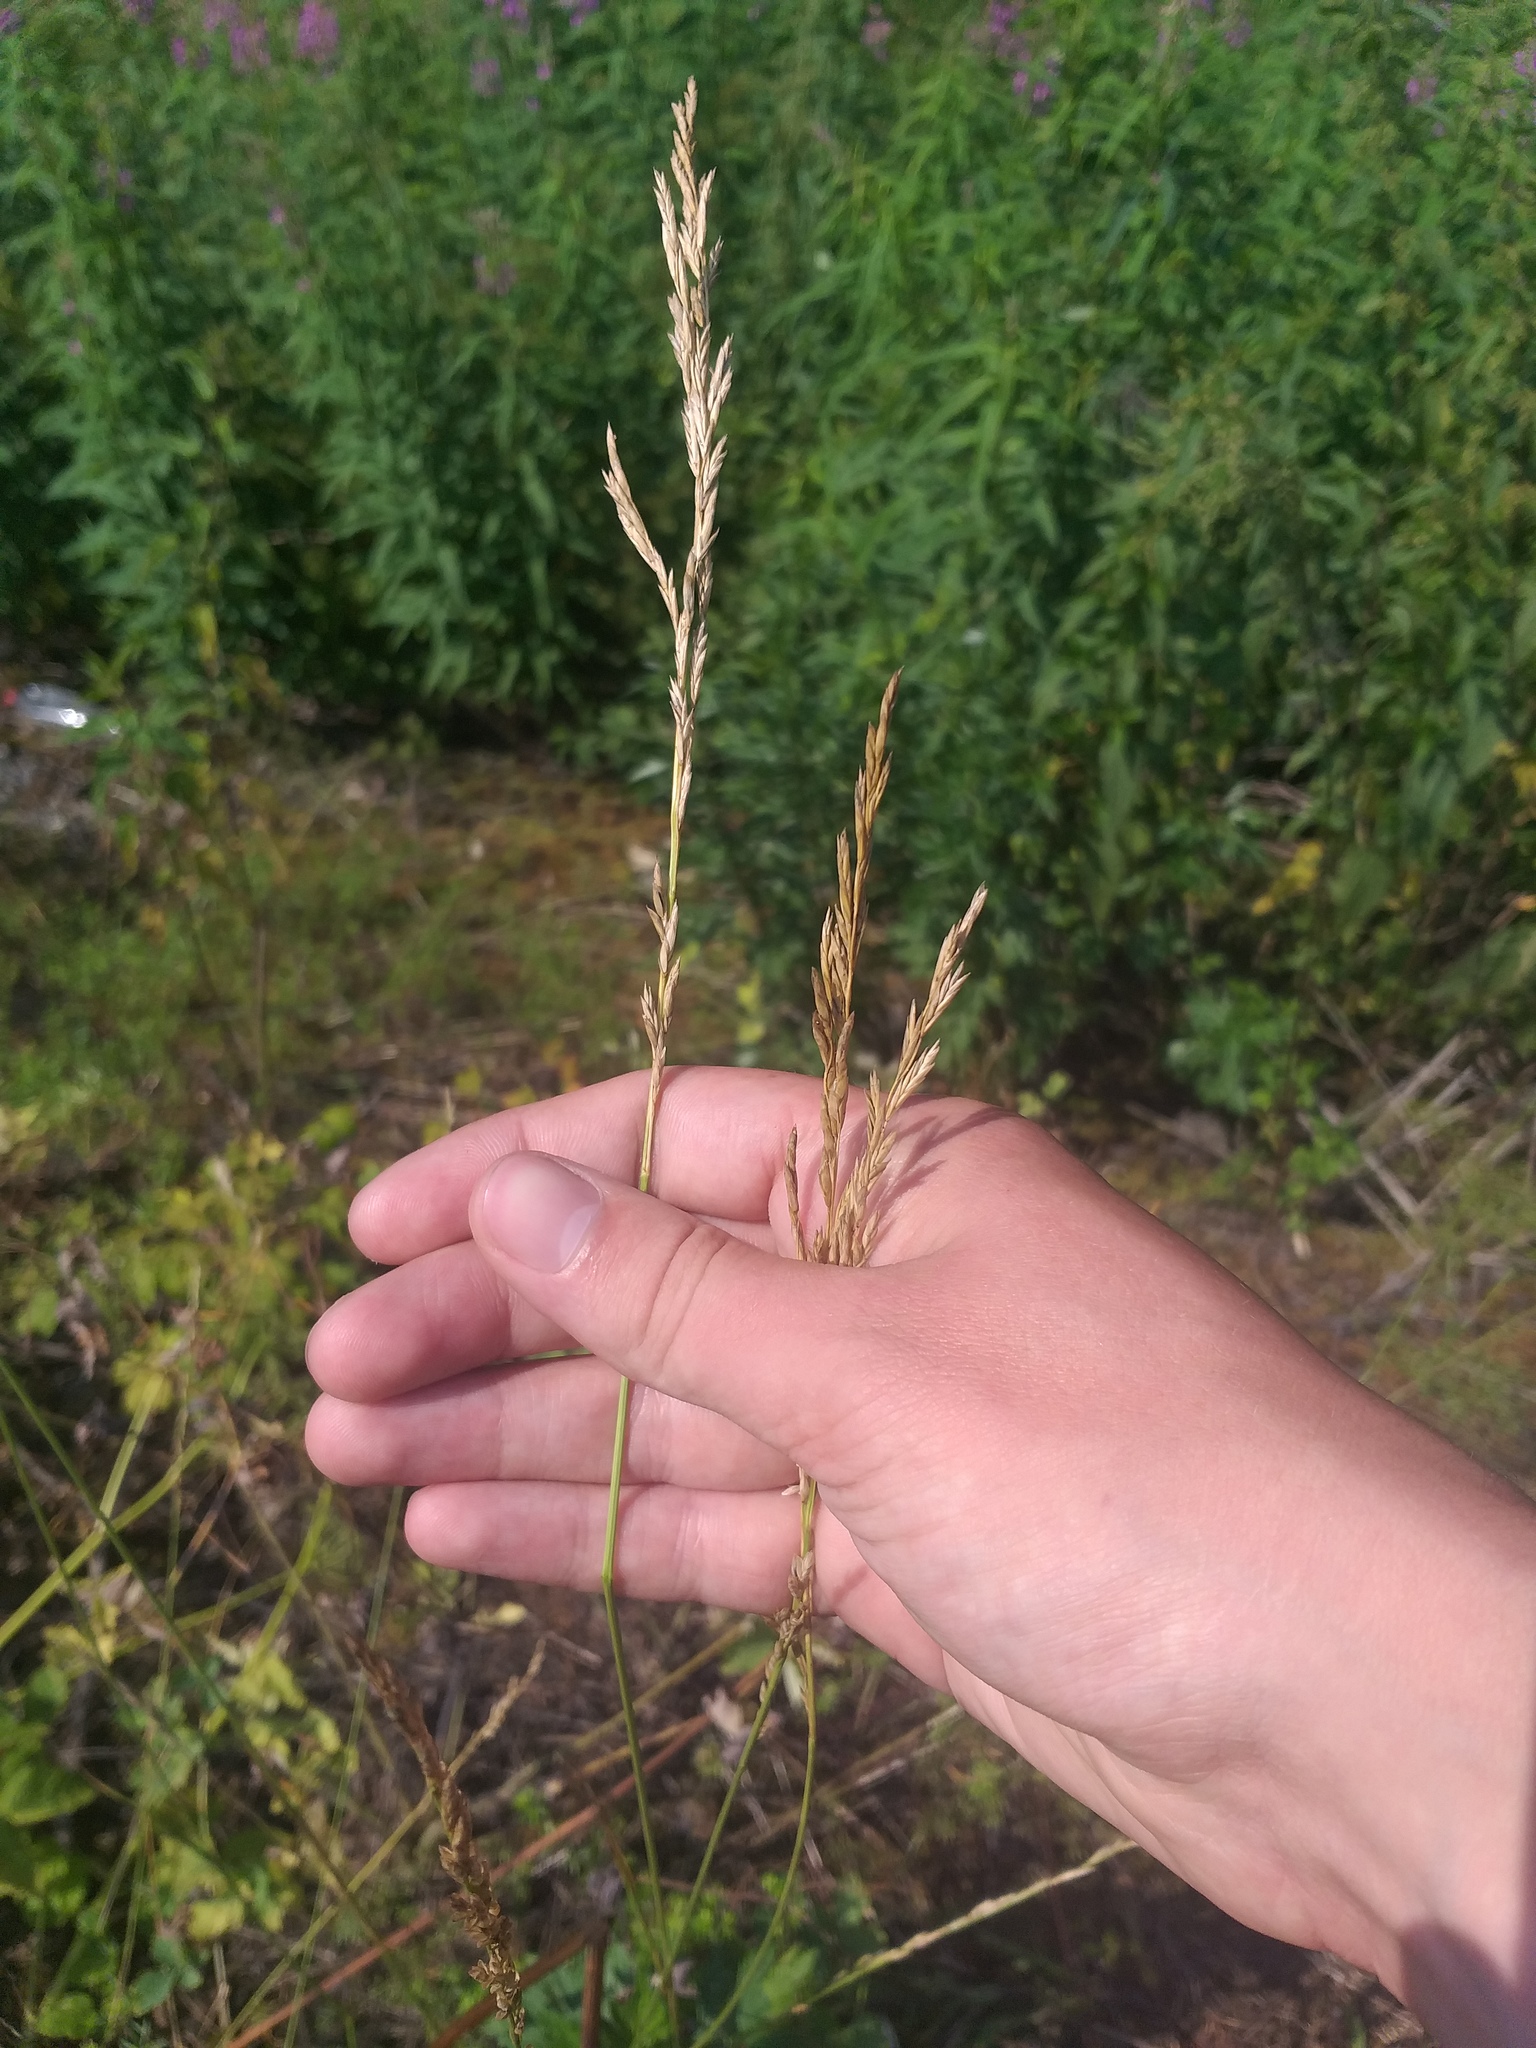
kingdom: Plantae
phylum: Tracheophyta
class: Liliopsida
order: Poales
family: Poaceae
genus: Lolium
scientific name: Lolium arundinaceum
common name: Reed fescue
